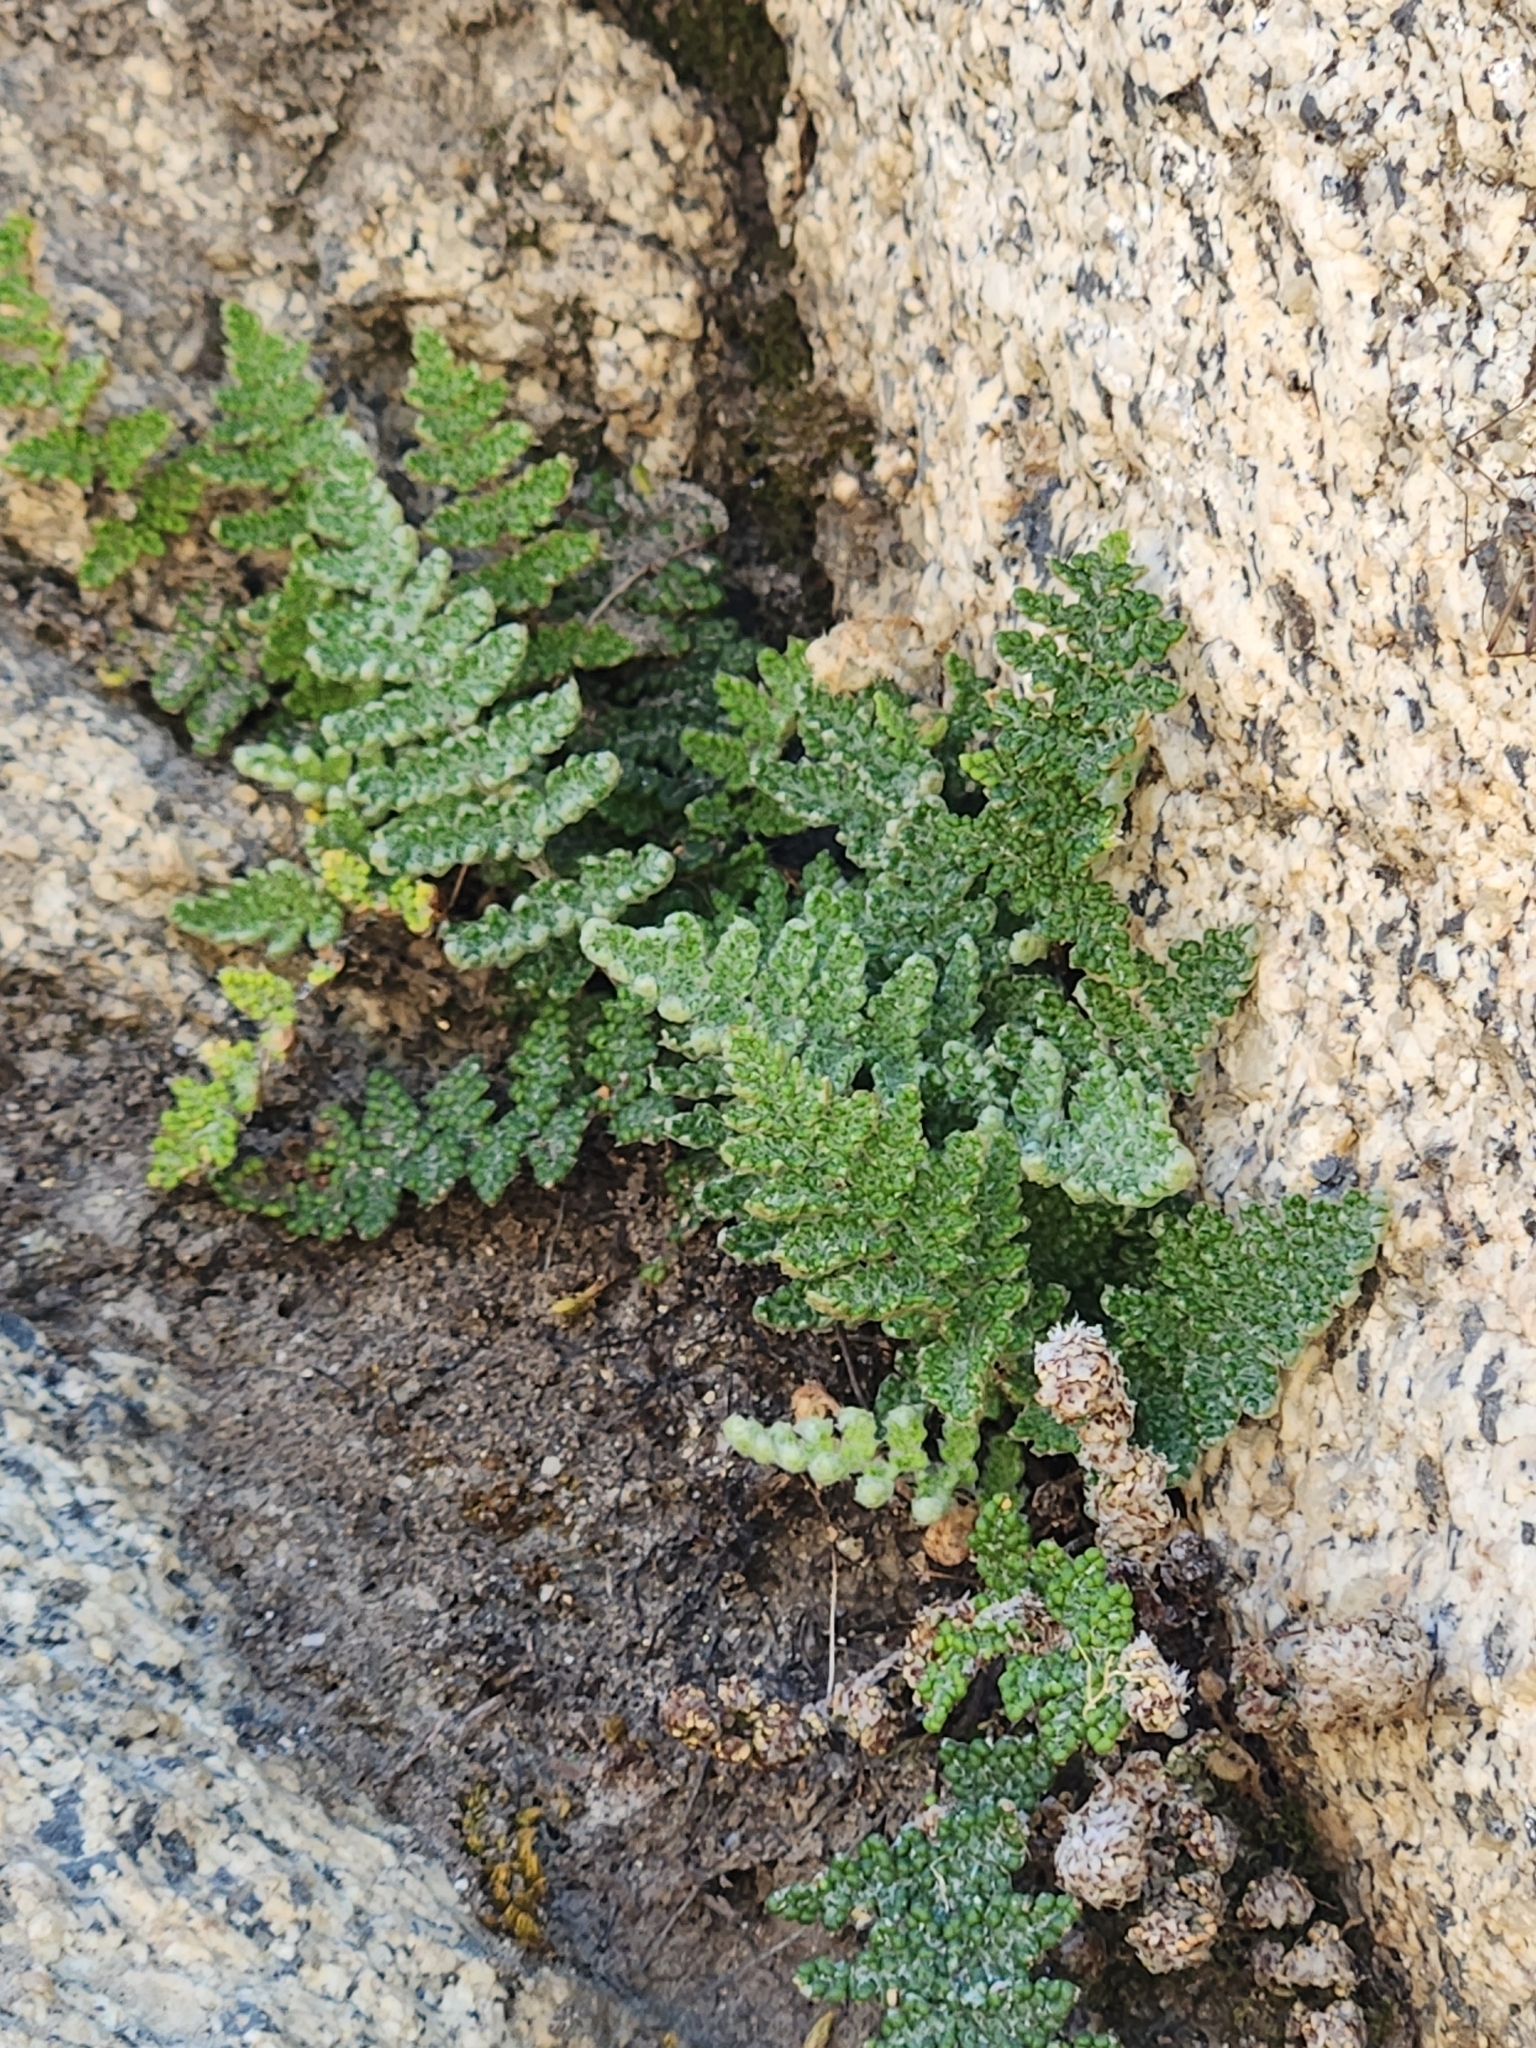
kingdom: Plantae
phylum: Tracheophyta
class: Polypodiopsida
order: Polypodiales
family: Pteridaceae
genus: Myriopteris
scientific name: Myriopteris covillei
